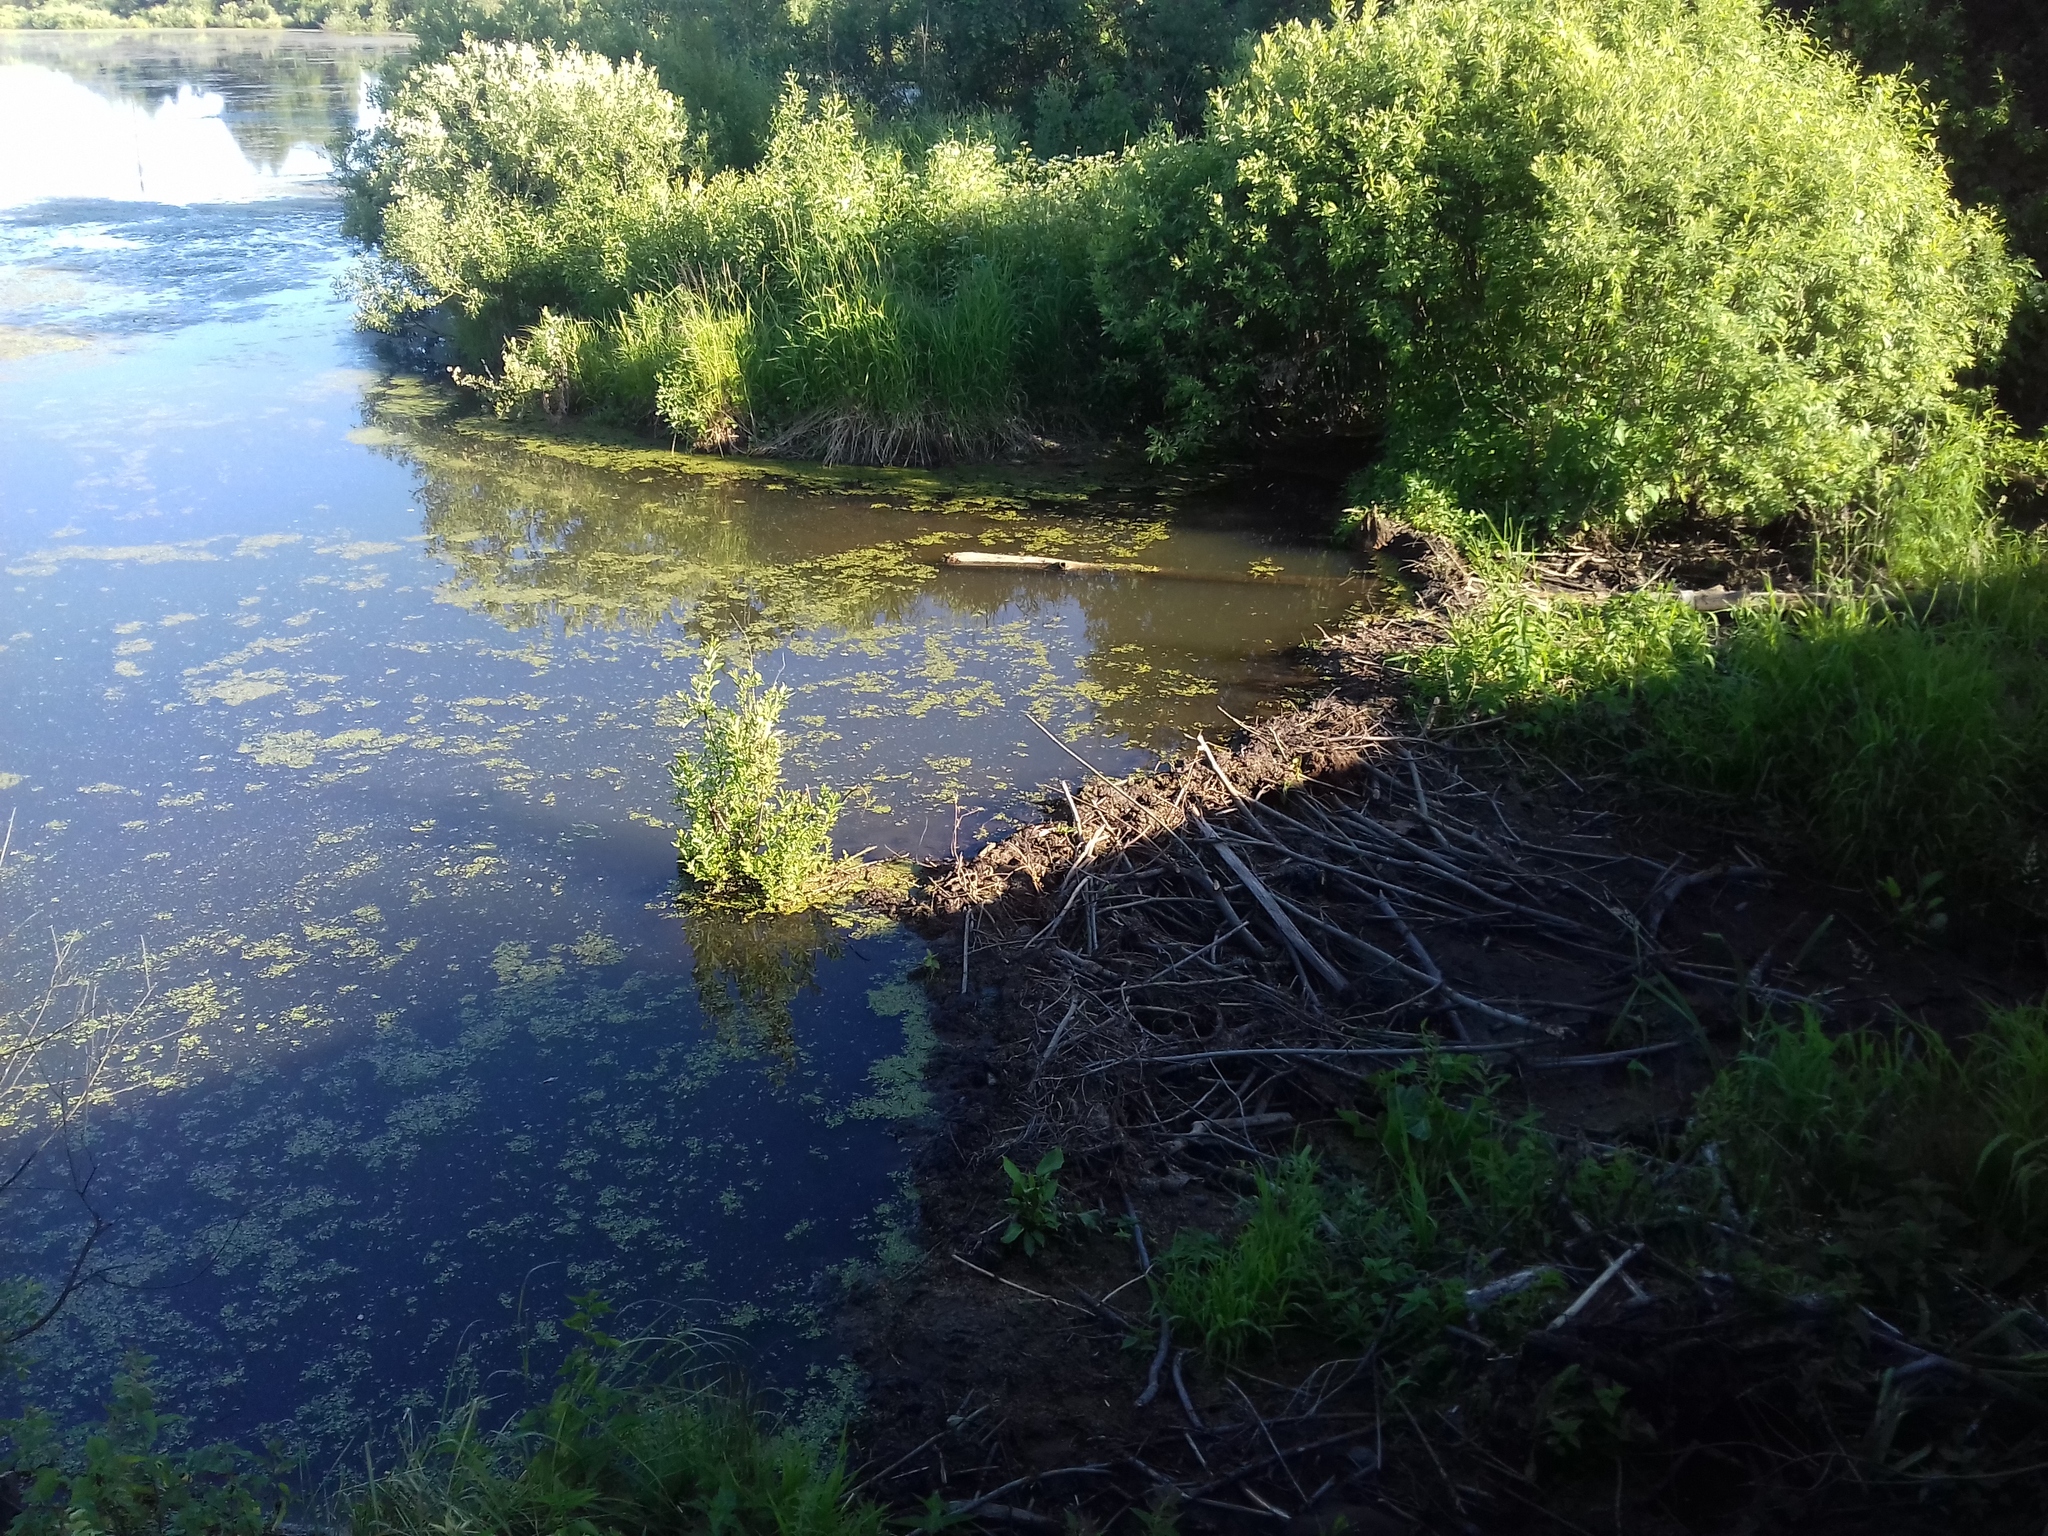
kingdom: Animalia
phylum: Chordata
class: Mammalia
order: Rodentia
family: Castoridae
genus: Castor
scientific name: Castor fiber
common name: Eurasian beaver
